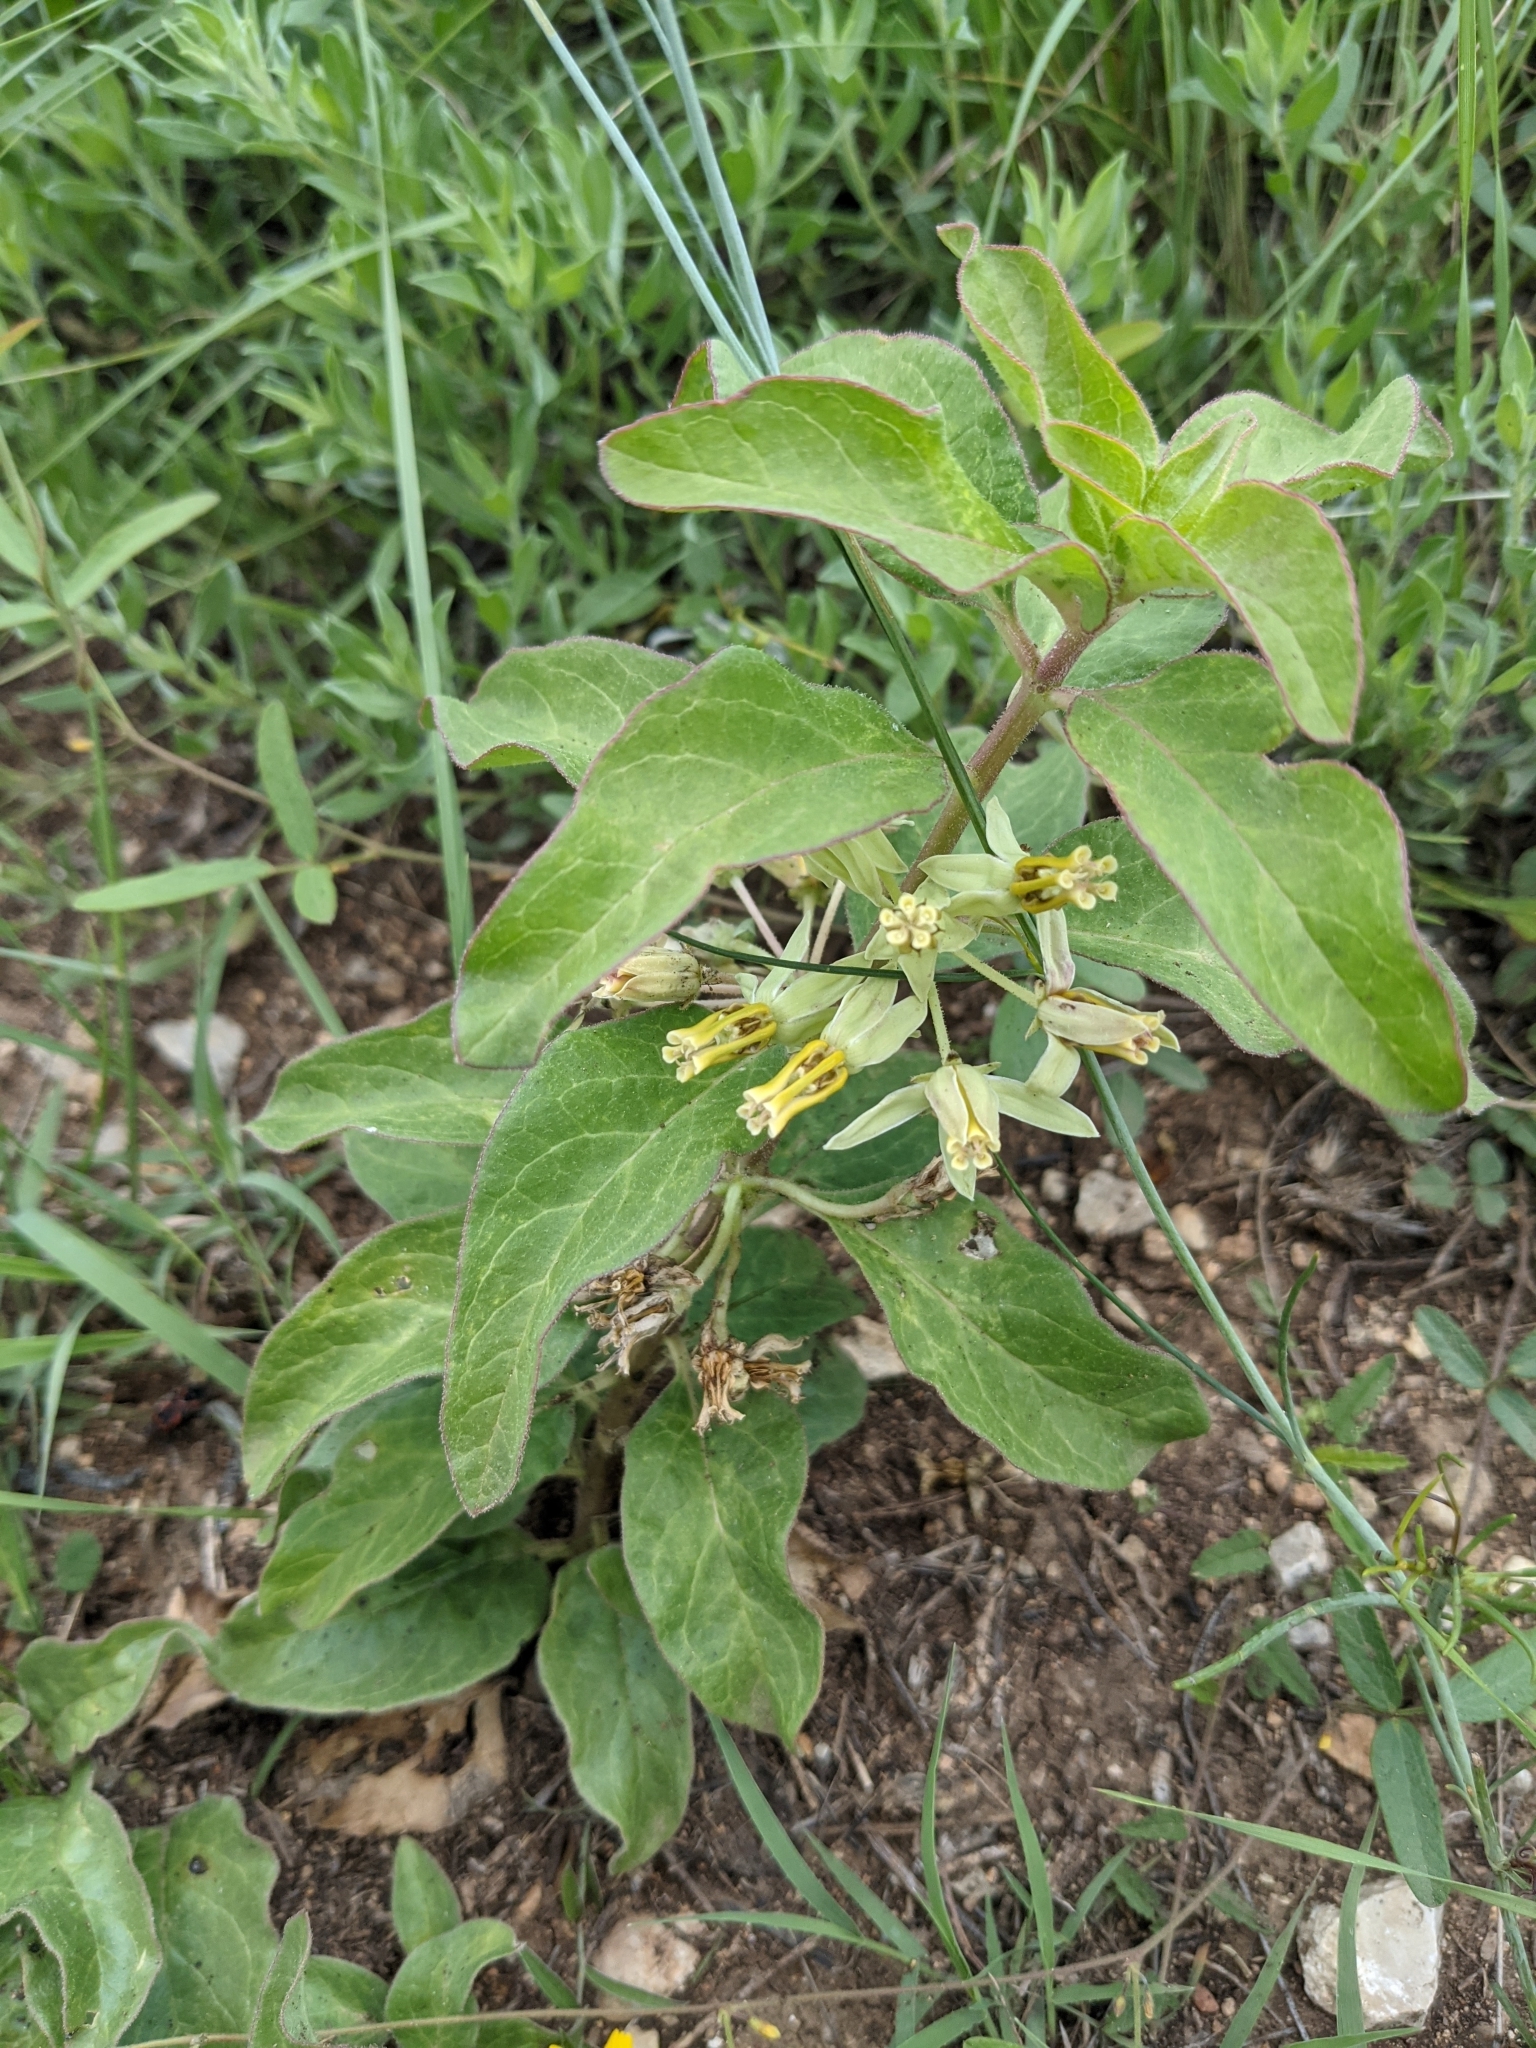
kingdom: Plantae
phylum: Tracheophyta
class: Magnoliopsida
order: Gentianales
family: Apocynaceae
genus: Asclepias
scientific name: Asclepias oenotheroides
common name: Zizotes milkweed
